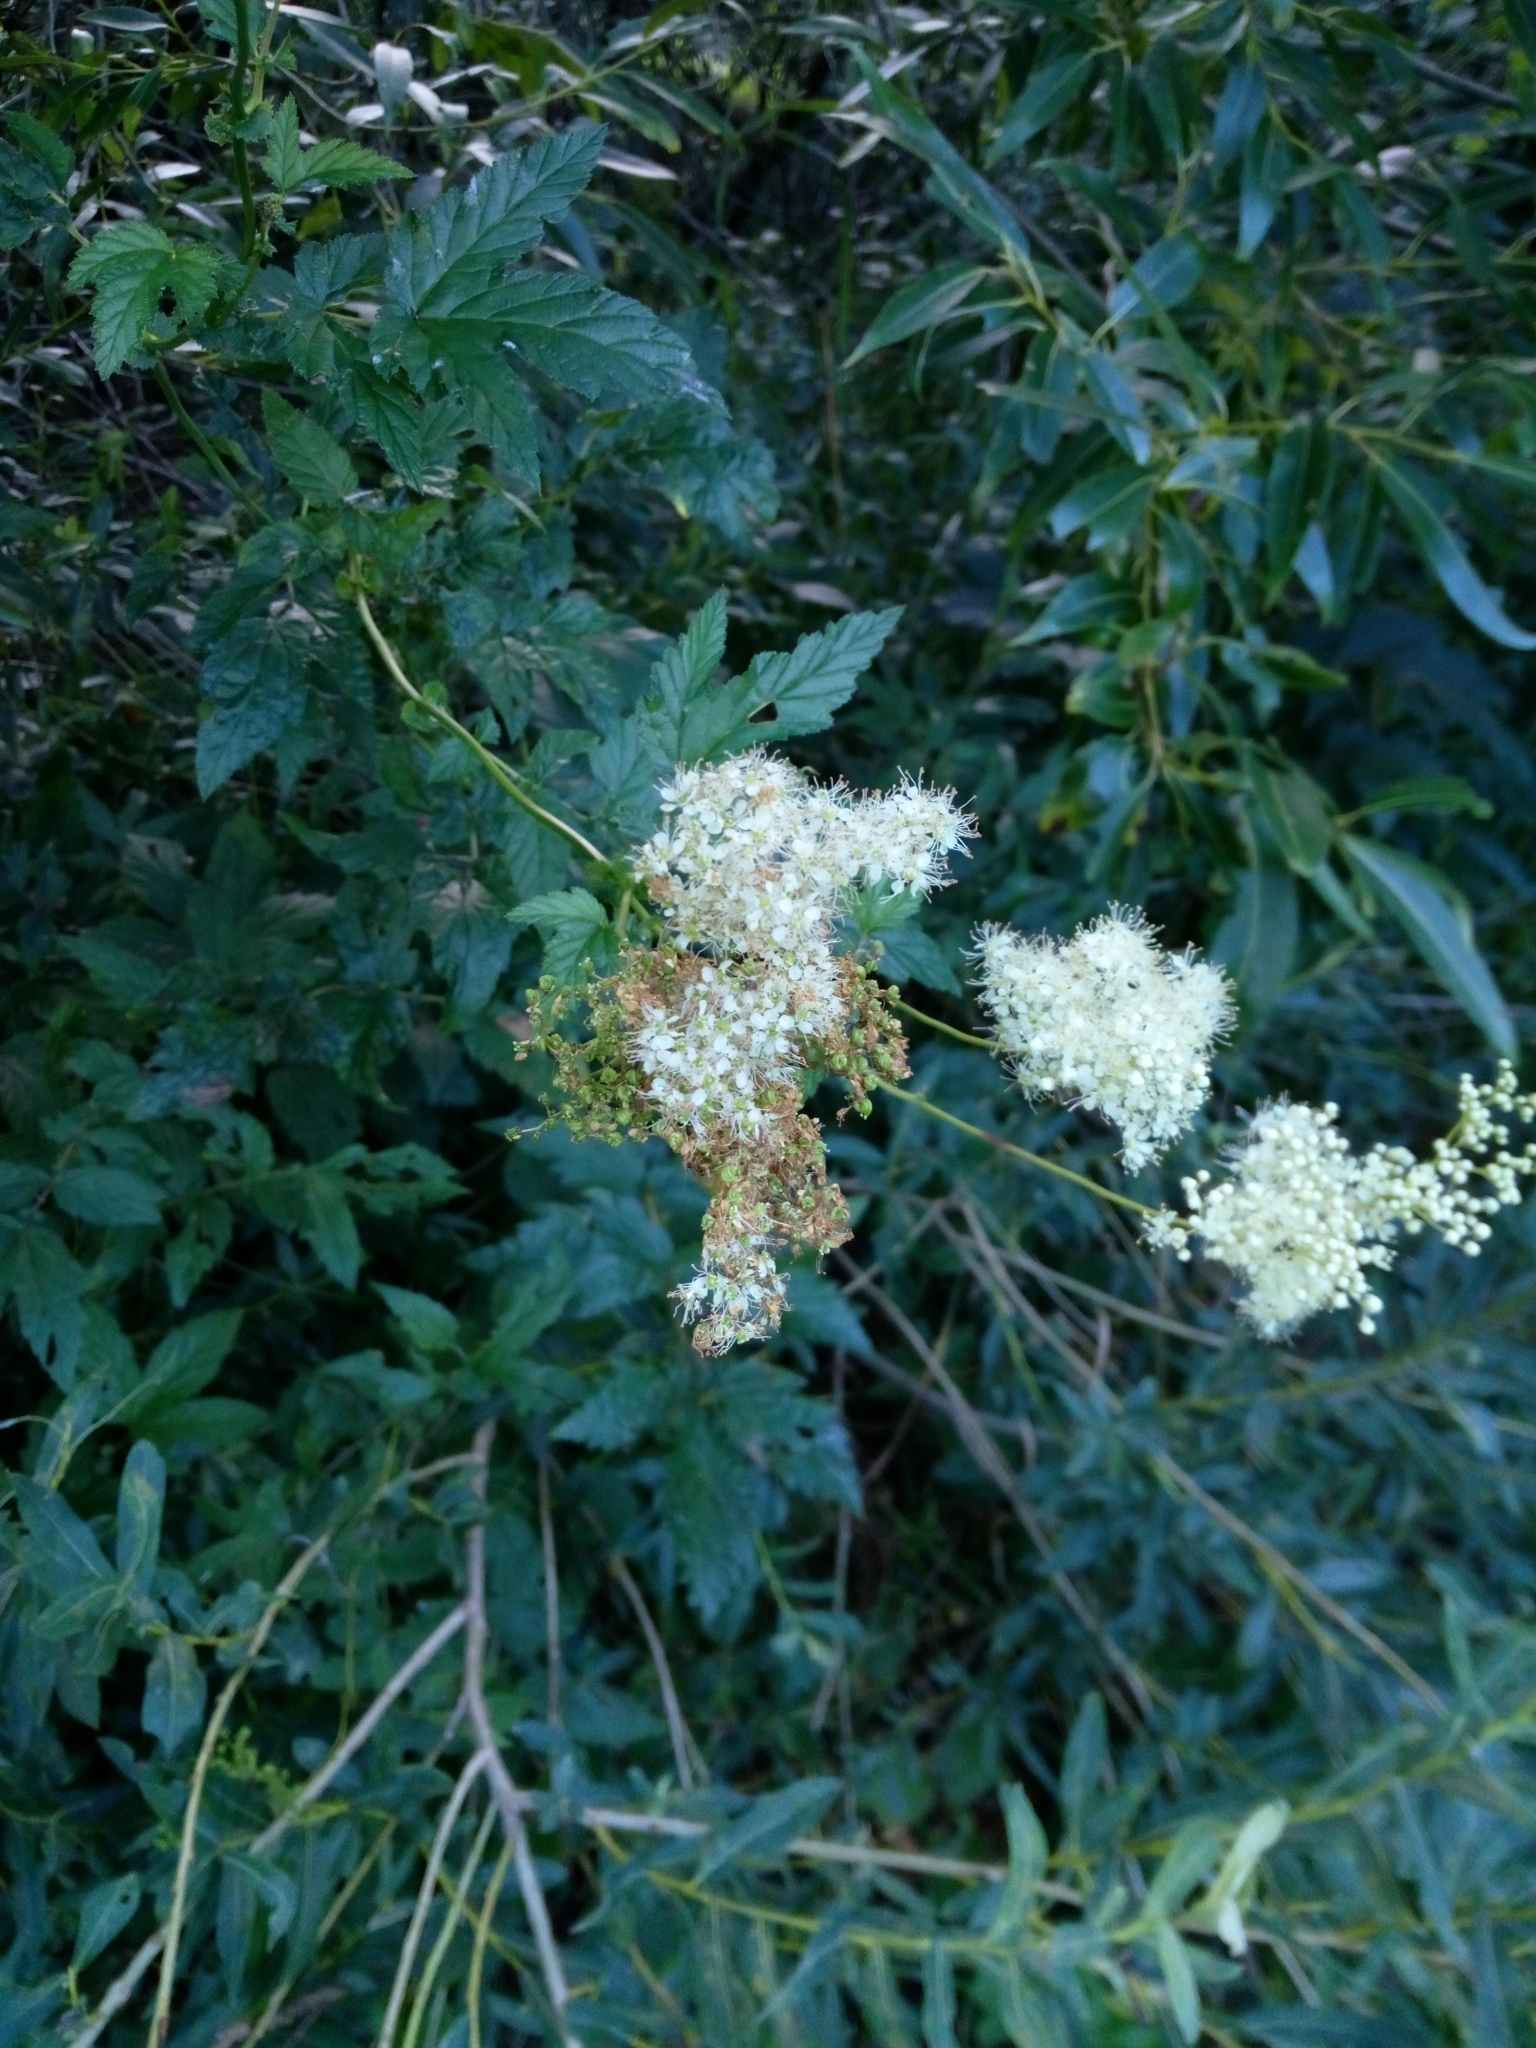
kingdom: Plantae
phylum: Tracheophyta
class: Magnoliopsida
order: Rosales
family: Rosaceae
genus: Filipendula
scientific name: Filipendula ulmaria
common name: Meadowsweet
